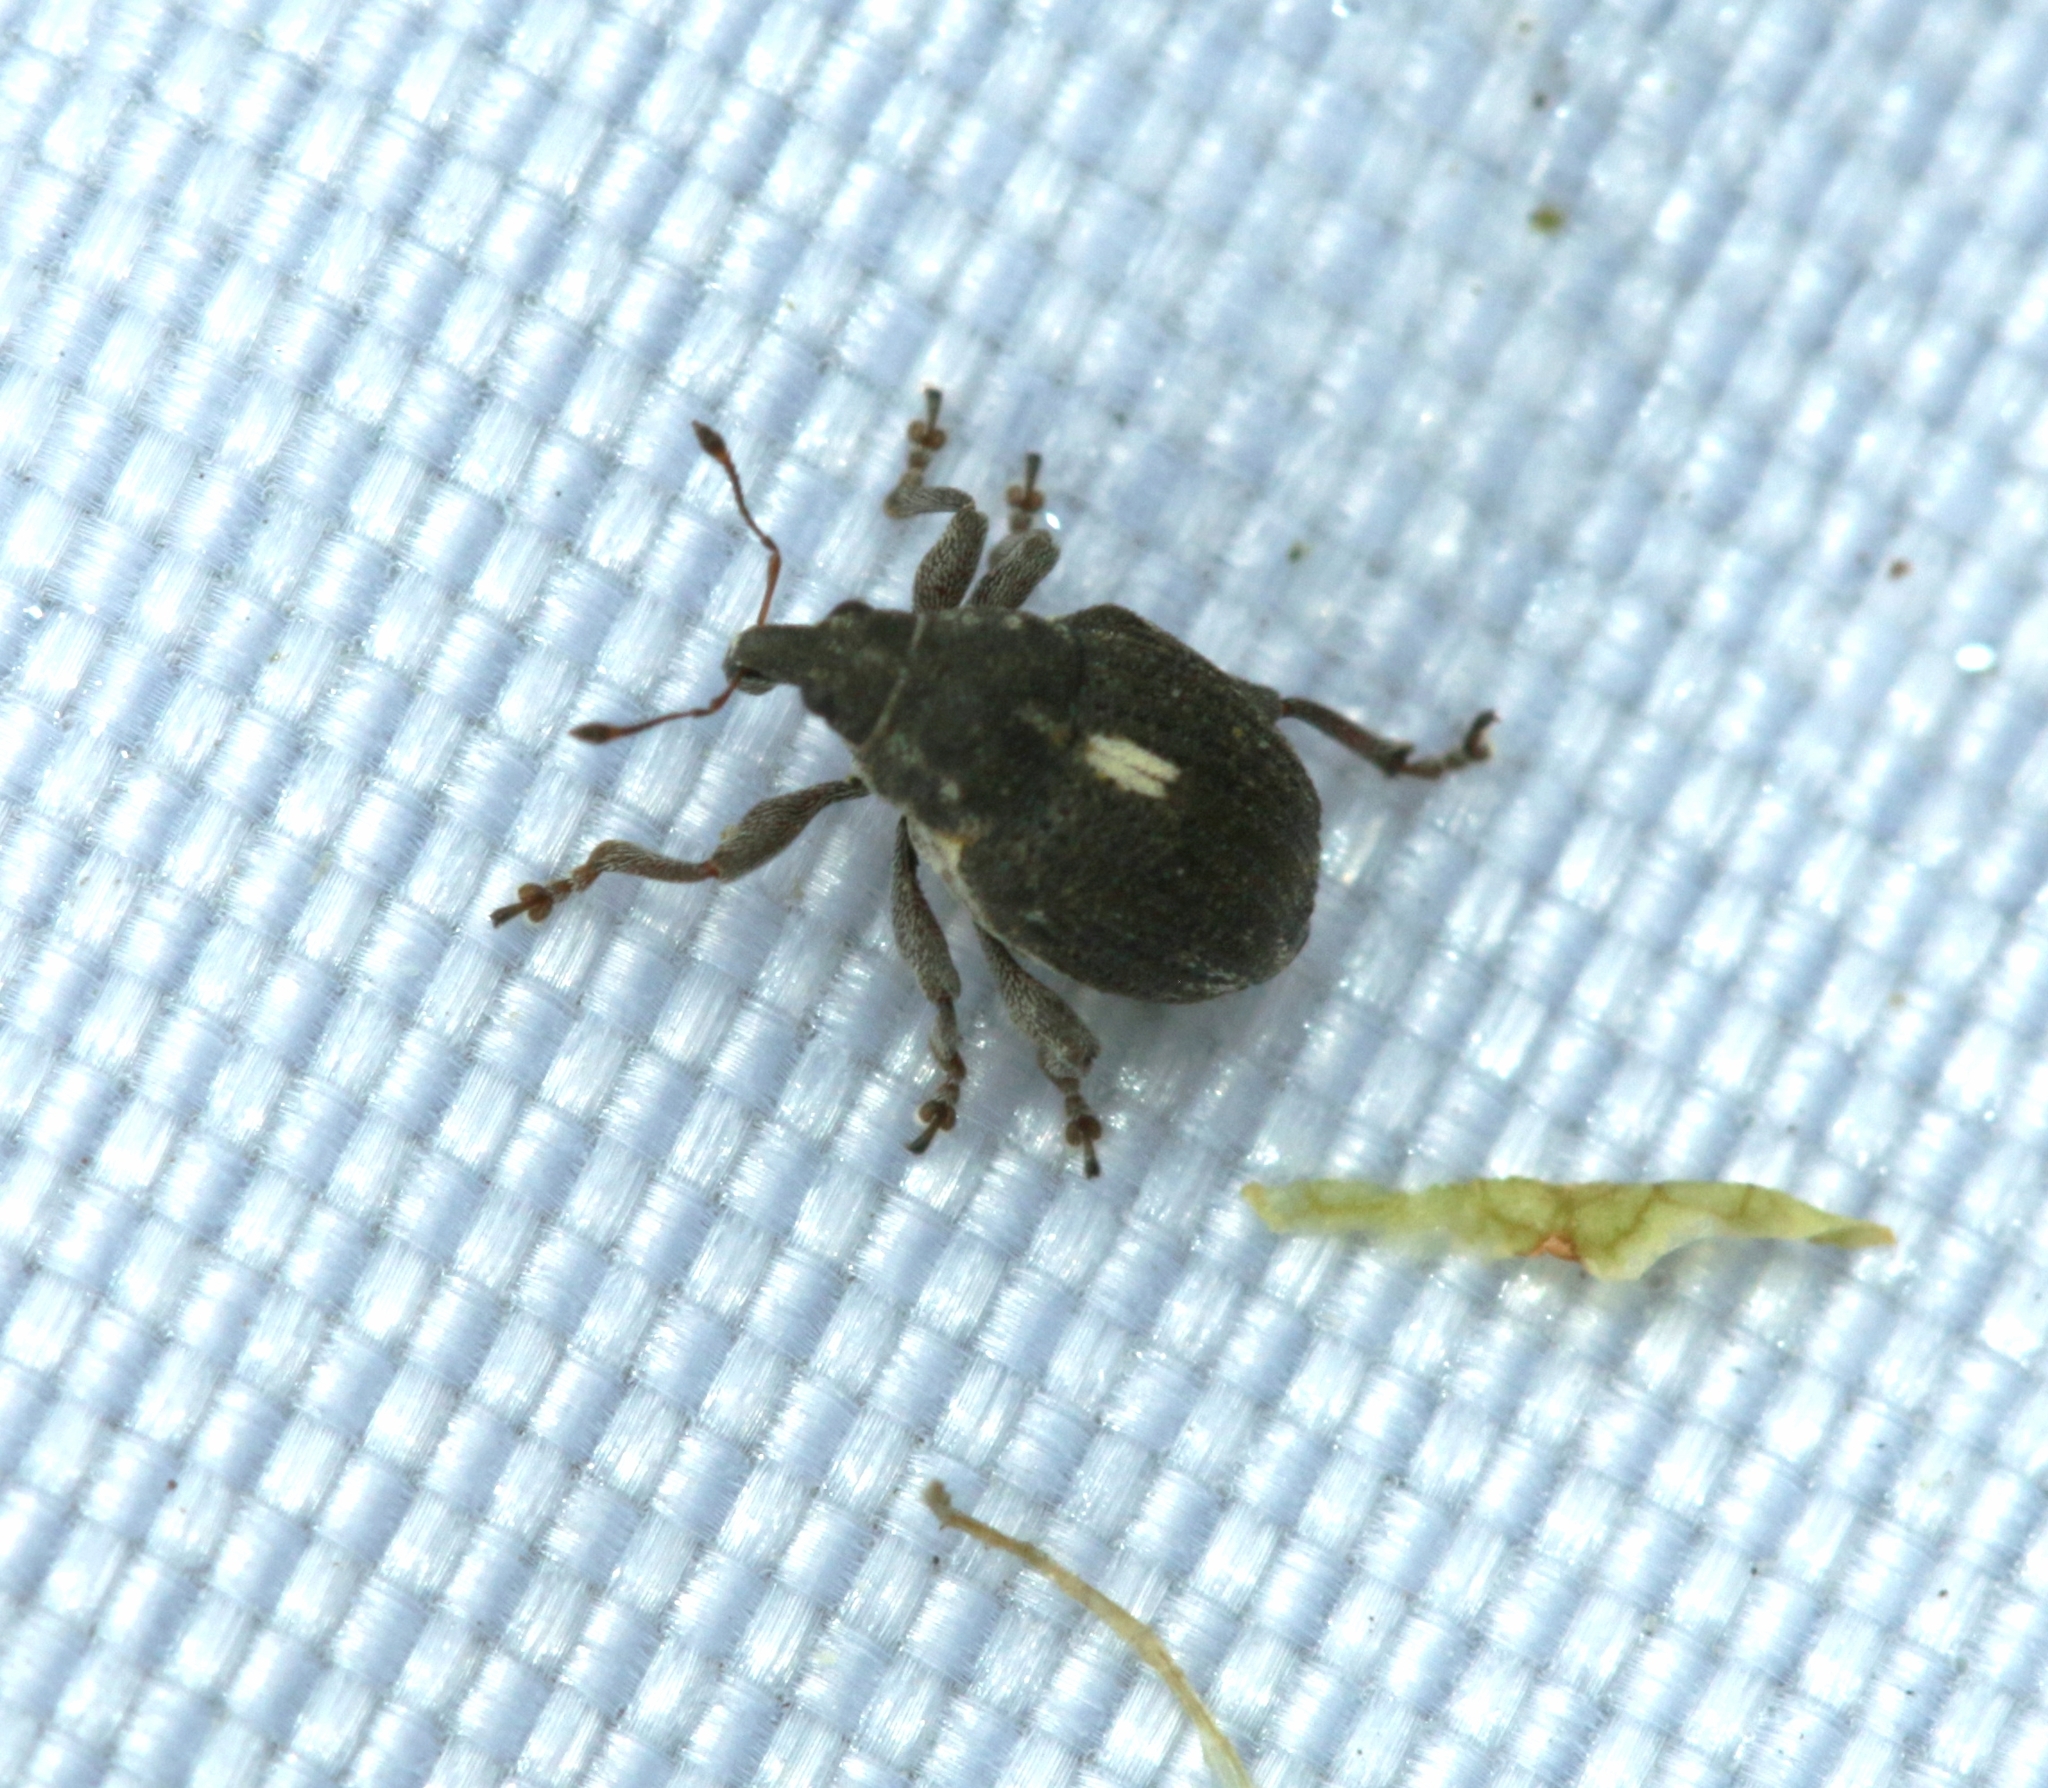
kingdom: Animalia
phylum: Arthropoda
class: Insecta
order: Coleoptera
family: Curculionidae
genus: Rhinoncus
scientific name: Rhinoncus leucostigma
